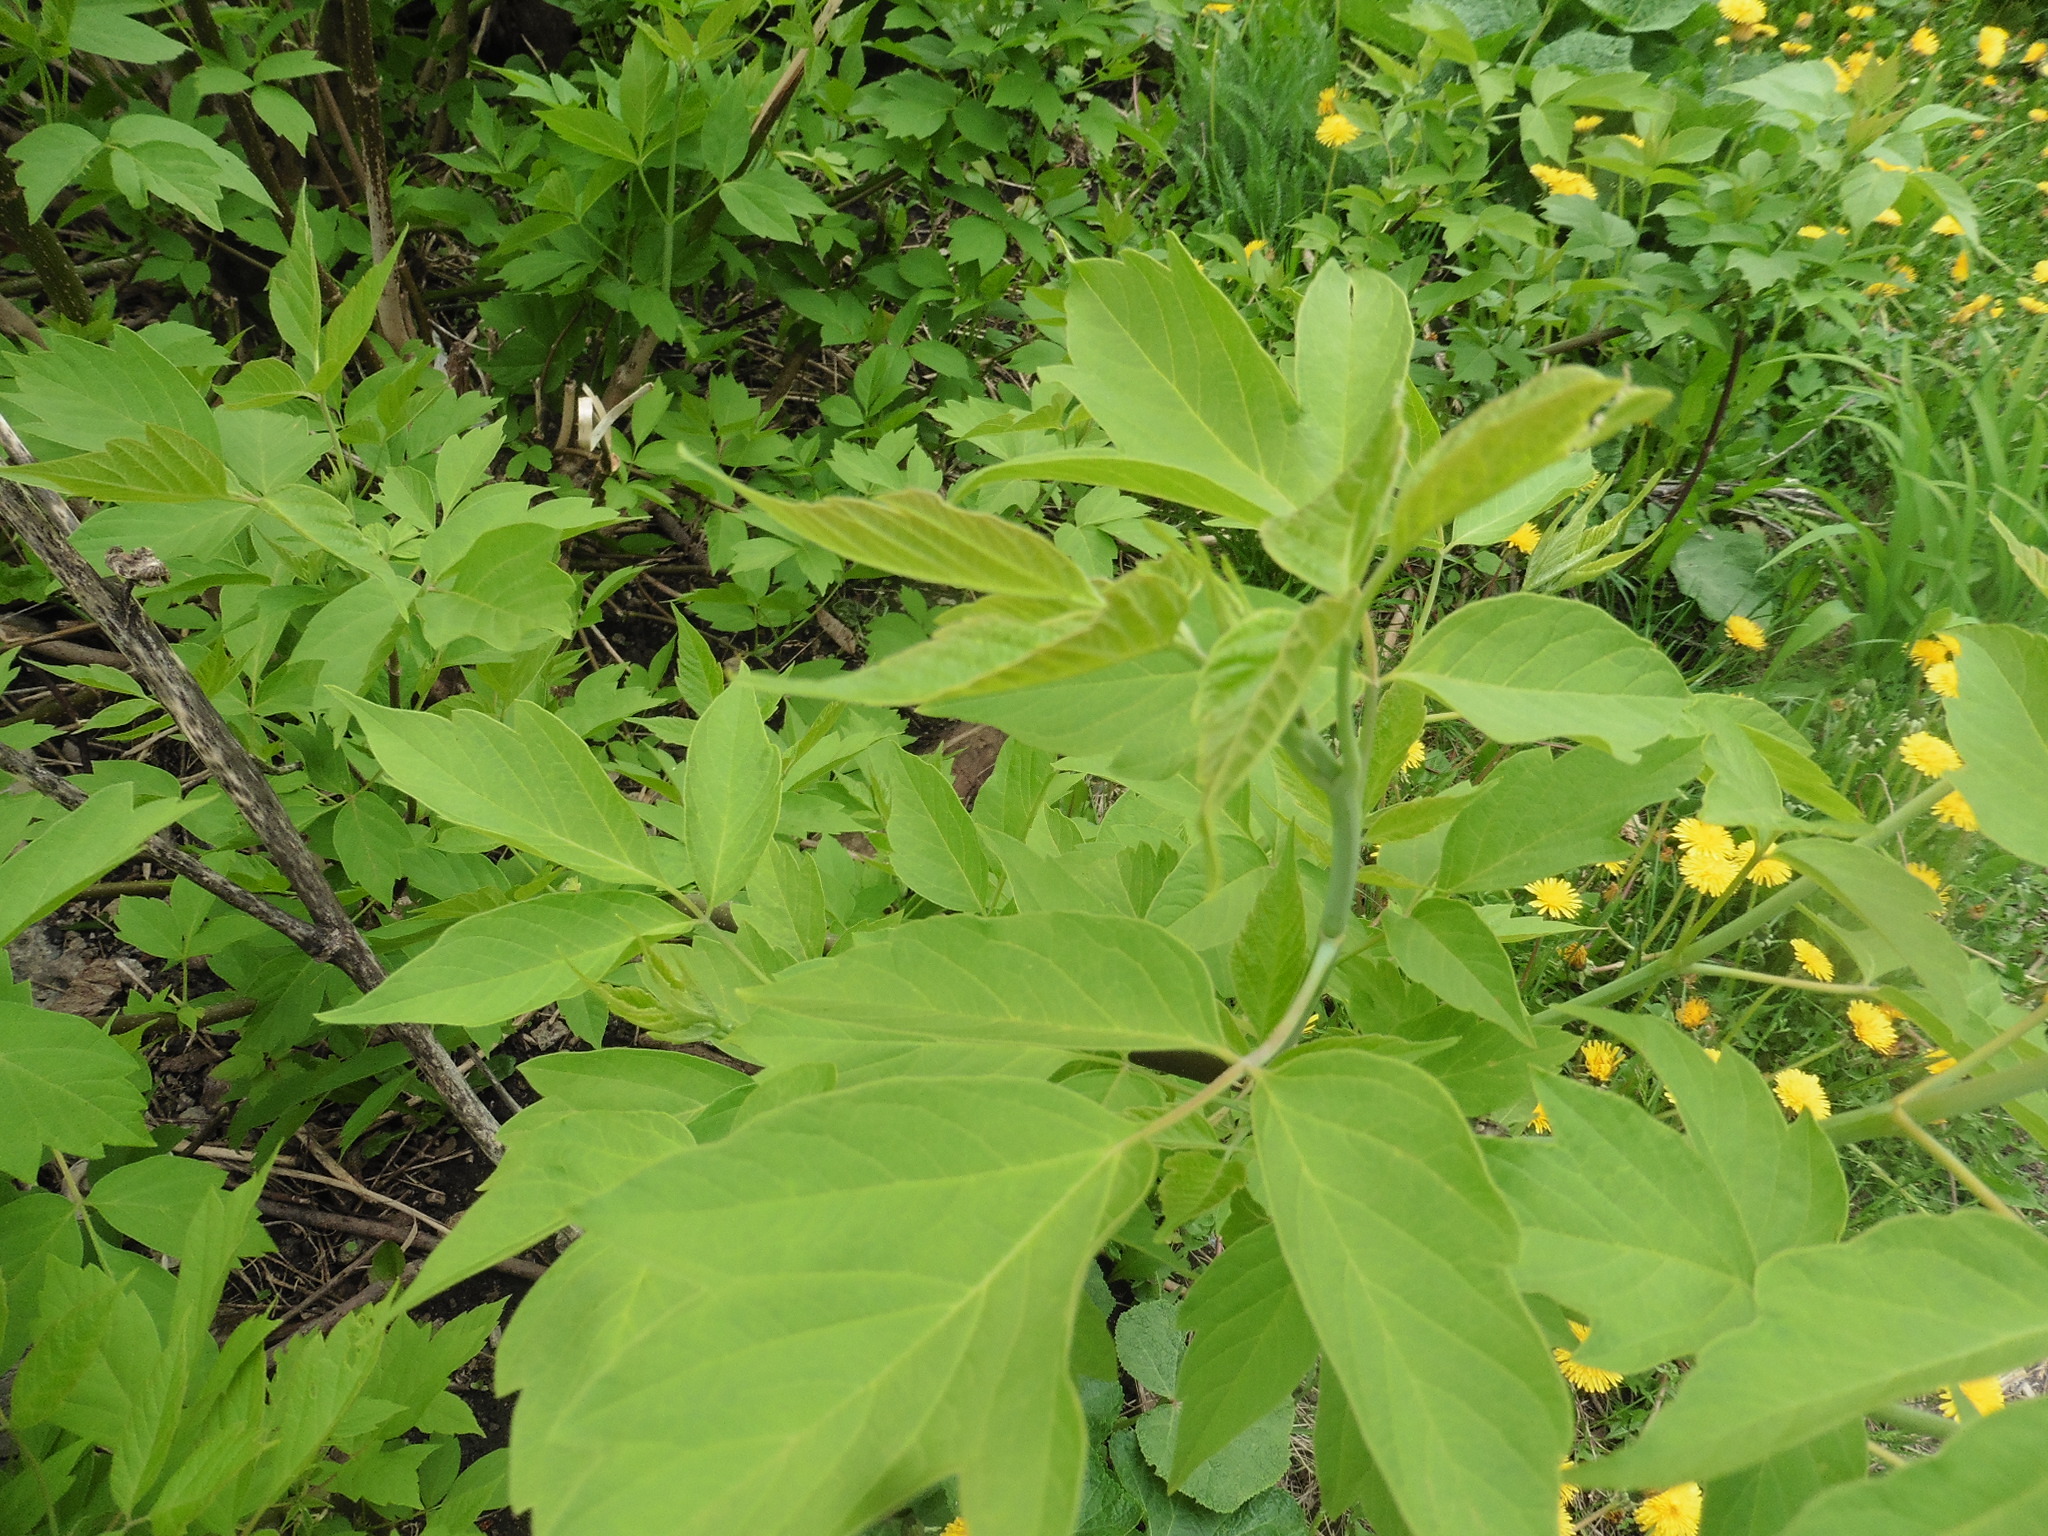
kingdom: Plantae
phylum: Tracheophyta
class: Magnoliopsida
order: Sapindales
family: Sapindaceae
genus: Acer
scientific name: Acer negundo
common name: Ashleaf maple
